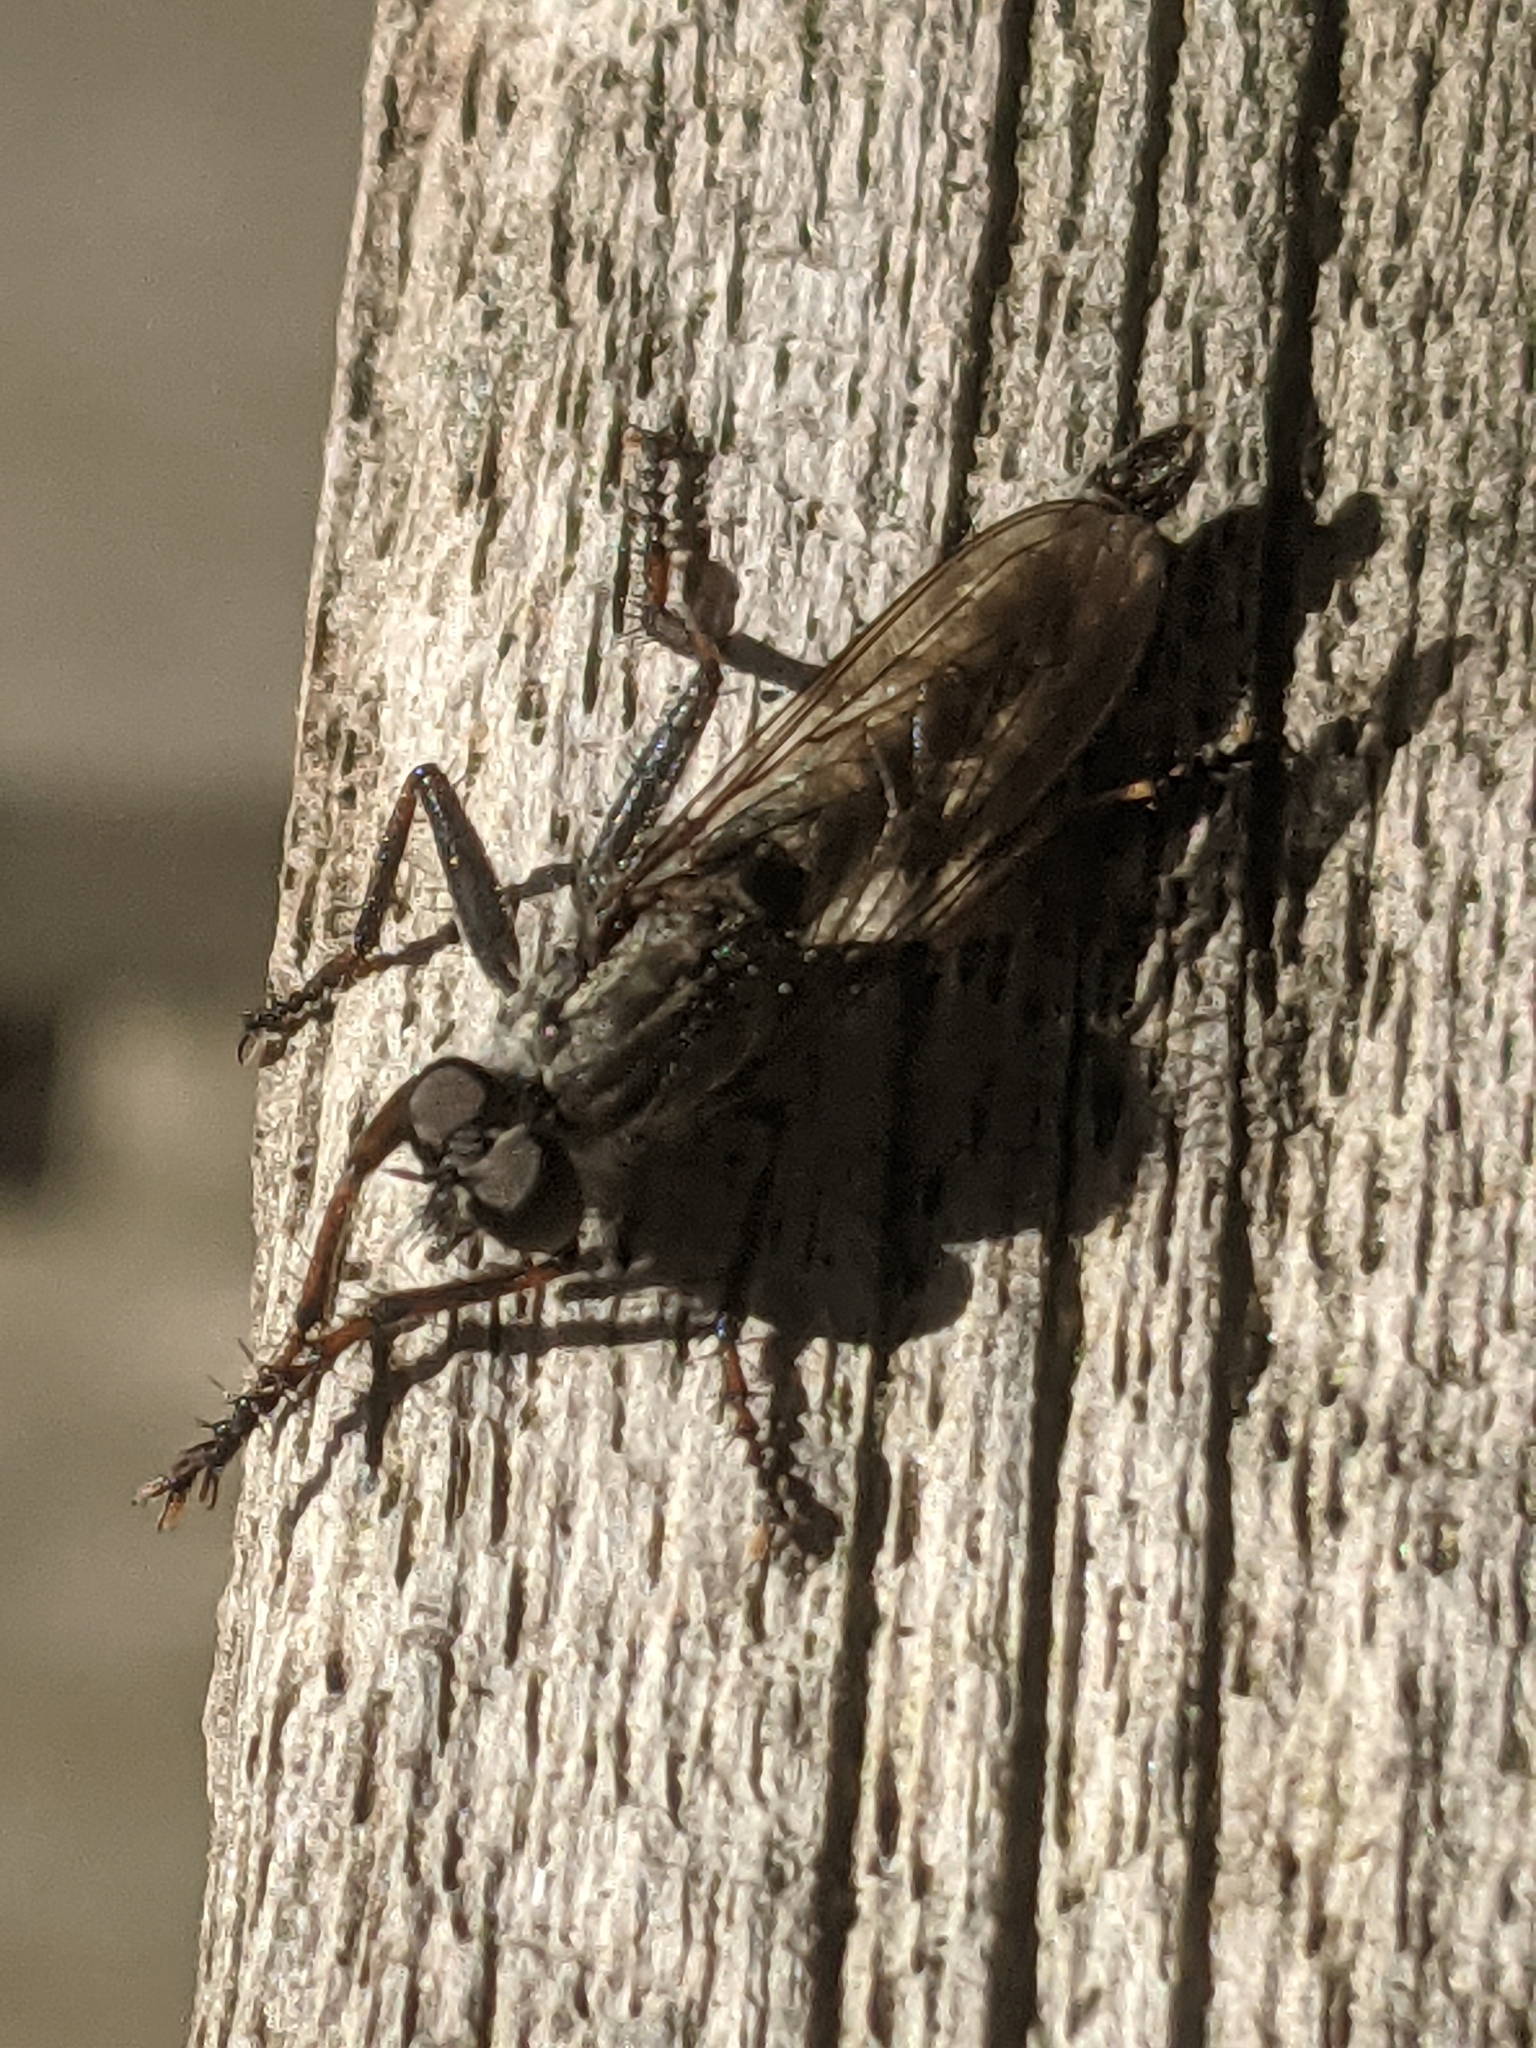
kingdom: Animalia
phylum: Arthropoda
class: Insecta
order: Diptera
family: Asilidae
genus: Machimus
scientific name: Machimus atricapillus
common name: Kite-tailed robberfly
